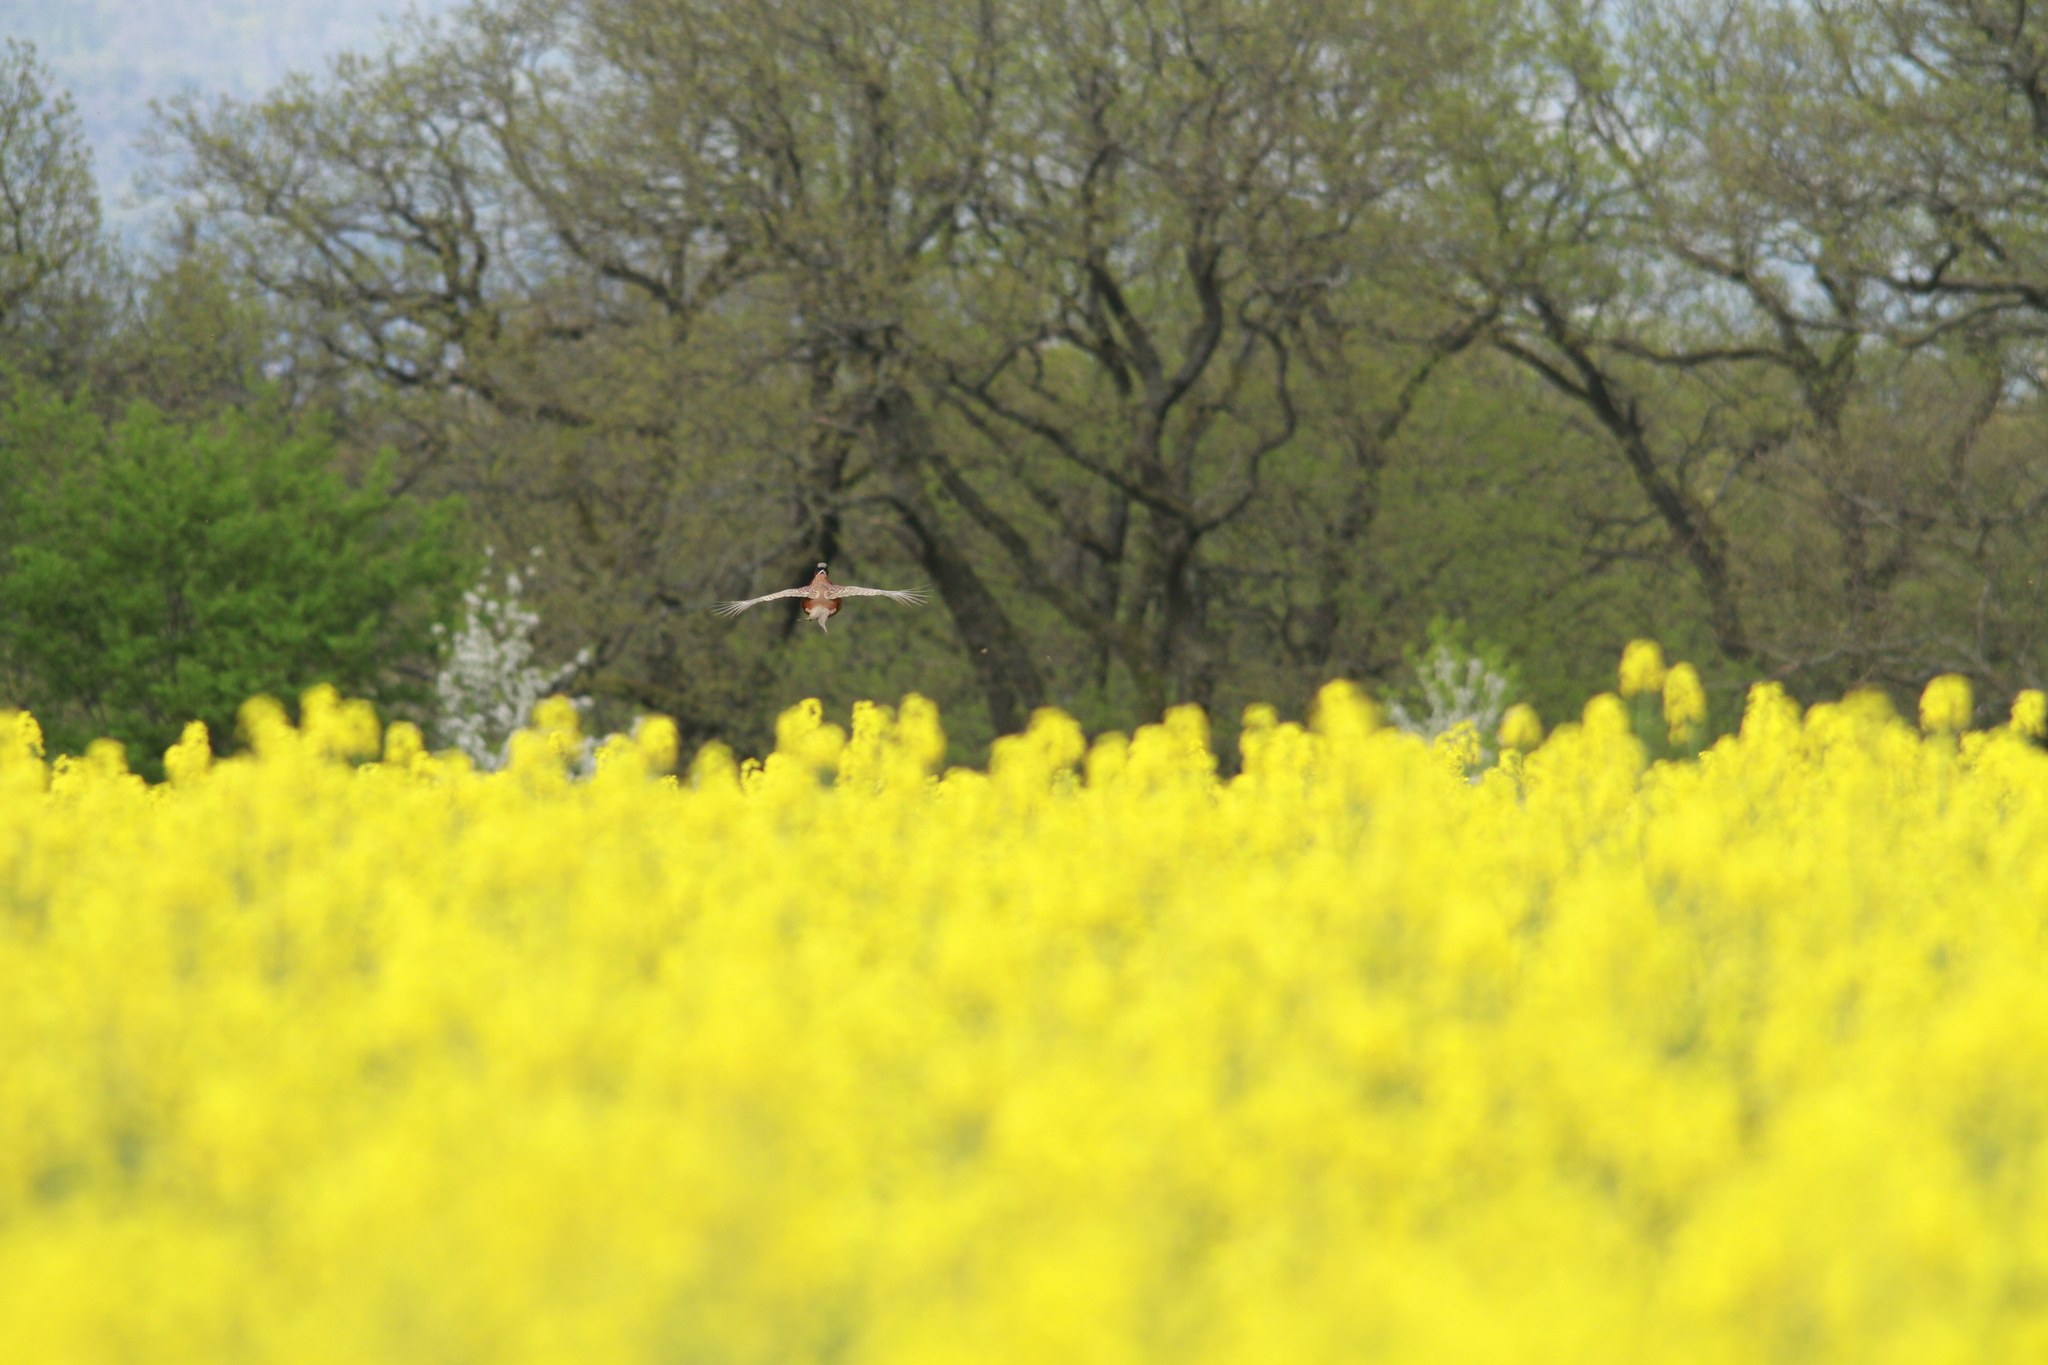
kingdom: Animalia
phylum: Chordata
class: Aves
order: Galliformes
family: Phasianidae
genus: Phasianus
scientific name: Phasianus colchicus
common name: Common pheasant
